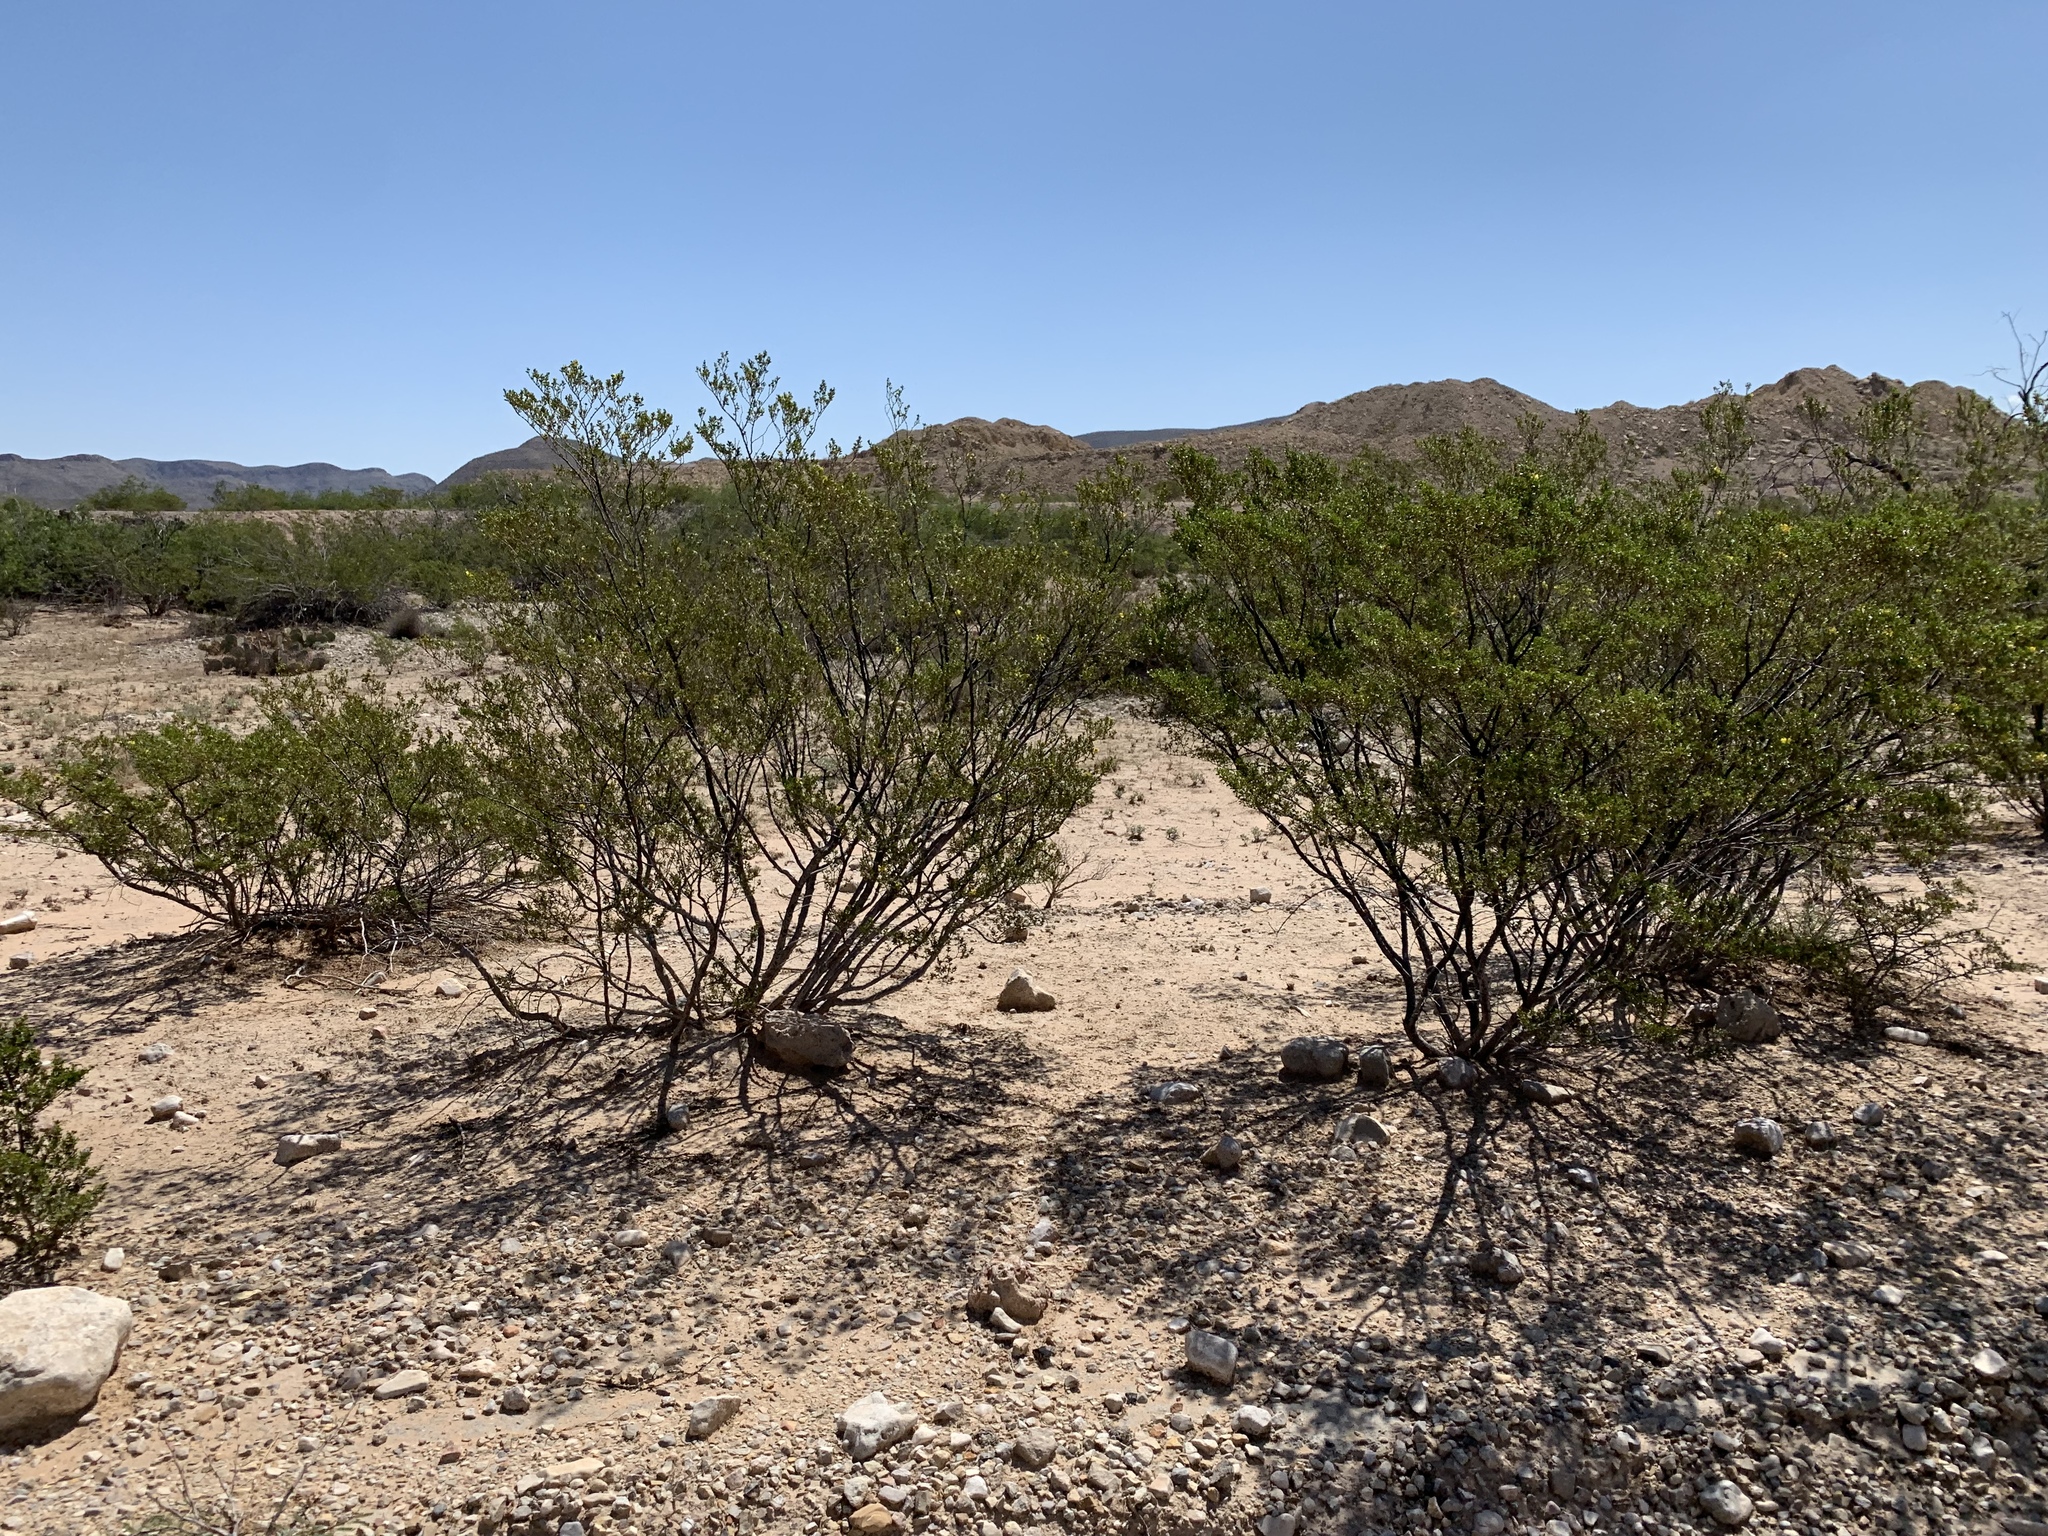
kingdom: Plantae
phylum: Tracheophyta
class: Magnoliopsida
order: Zygophyllales
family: Zygophyllaceae
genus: Larrea
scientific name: Larrea tridentata
